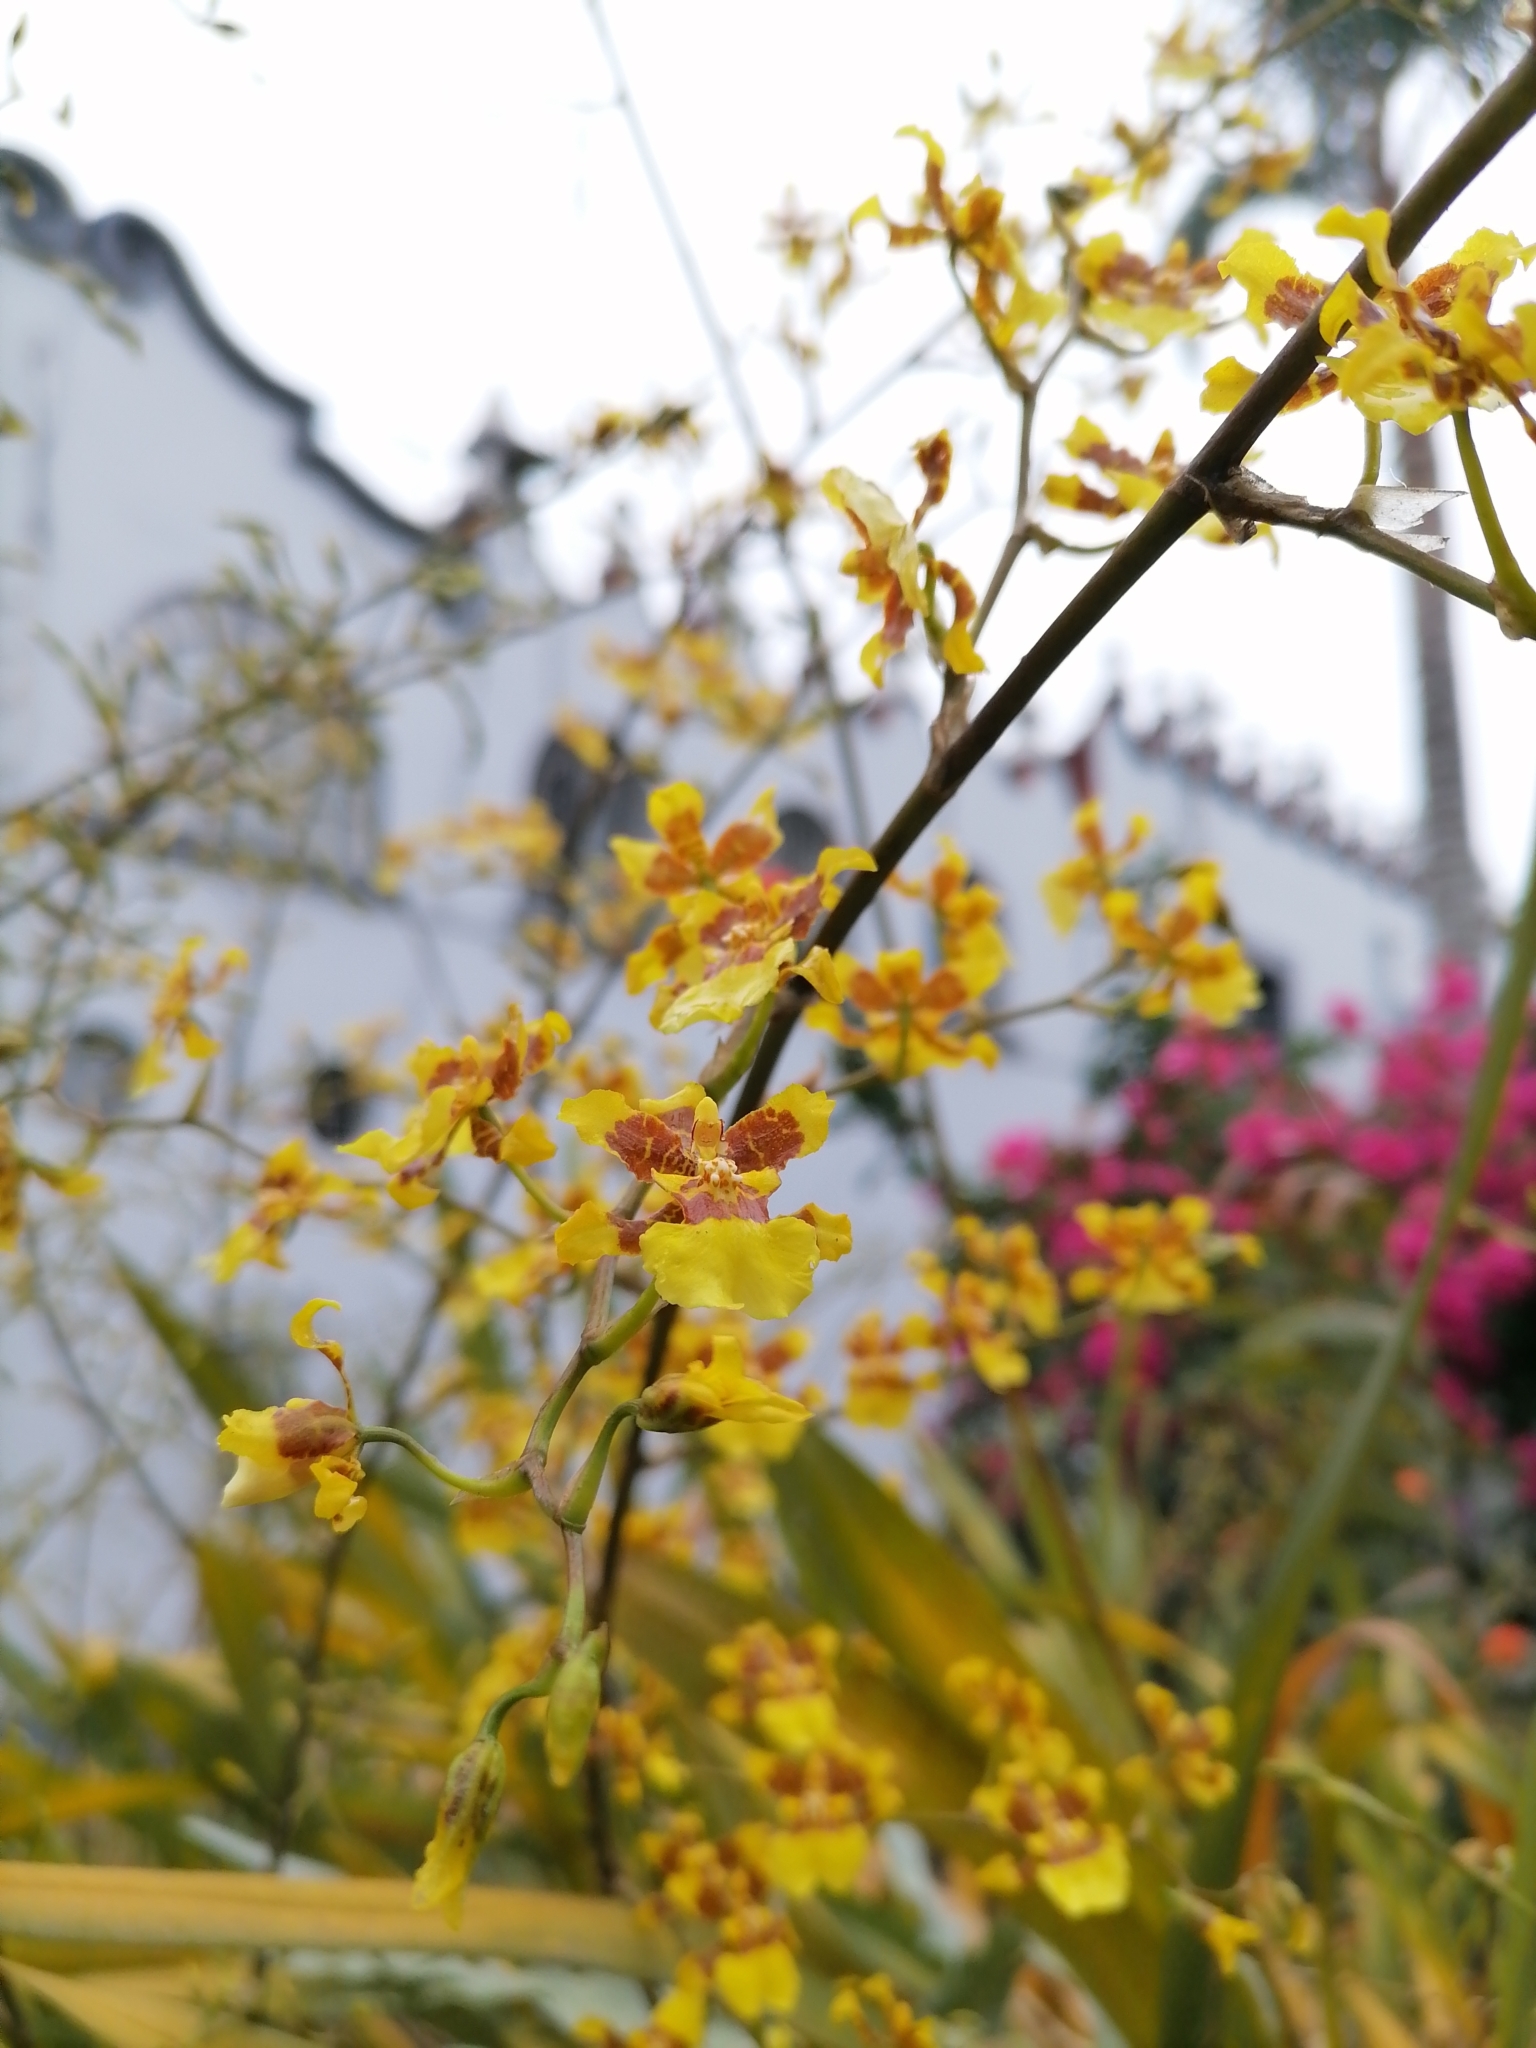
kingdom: Plantae
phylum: Tracheophyta
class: Liliopsida
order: Asparagales
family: Orchidaceae
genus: Oncidium
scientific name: Oncidium sphacelatum
